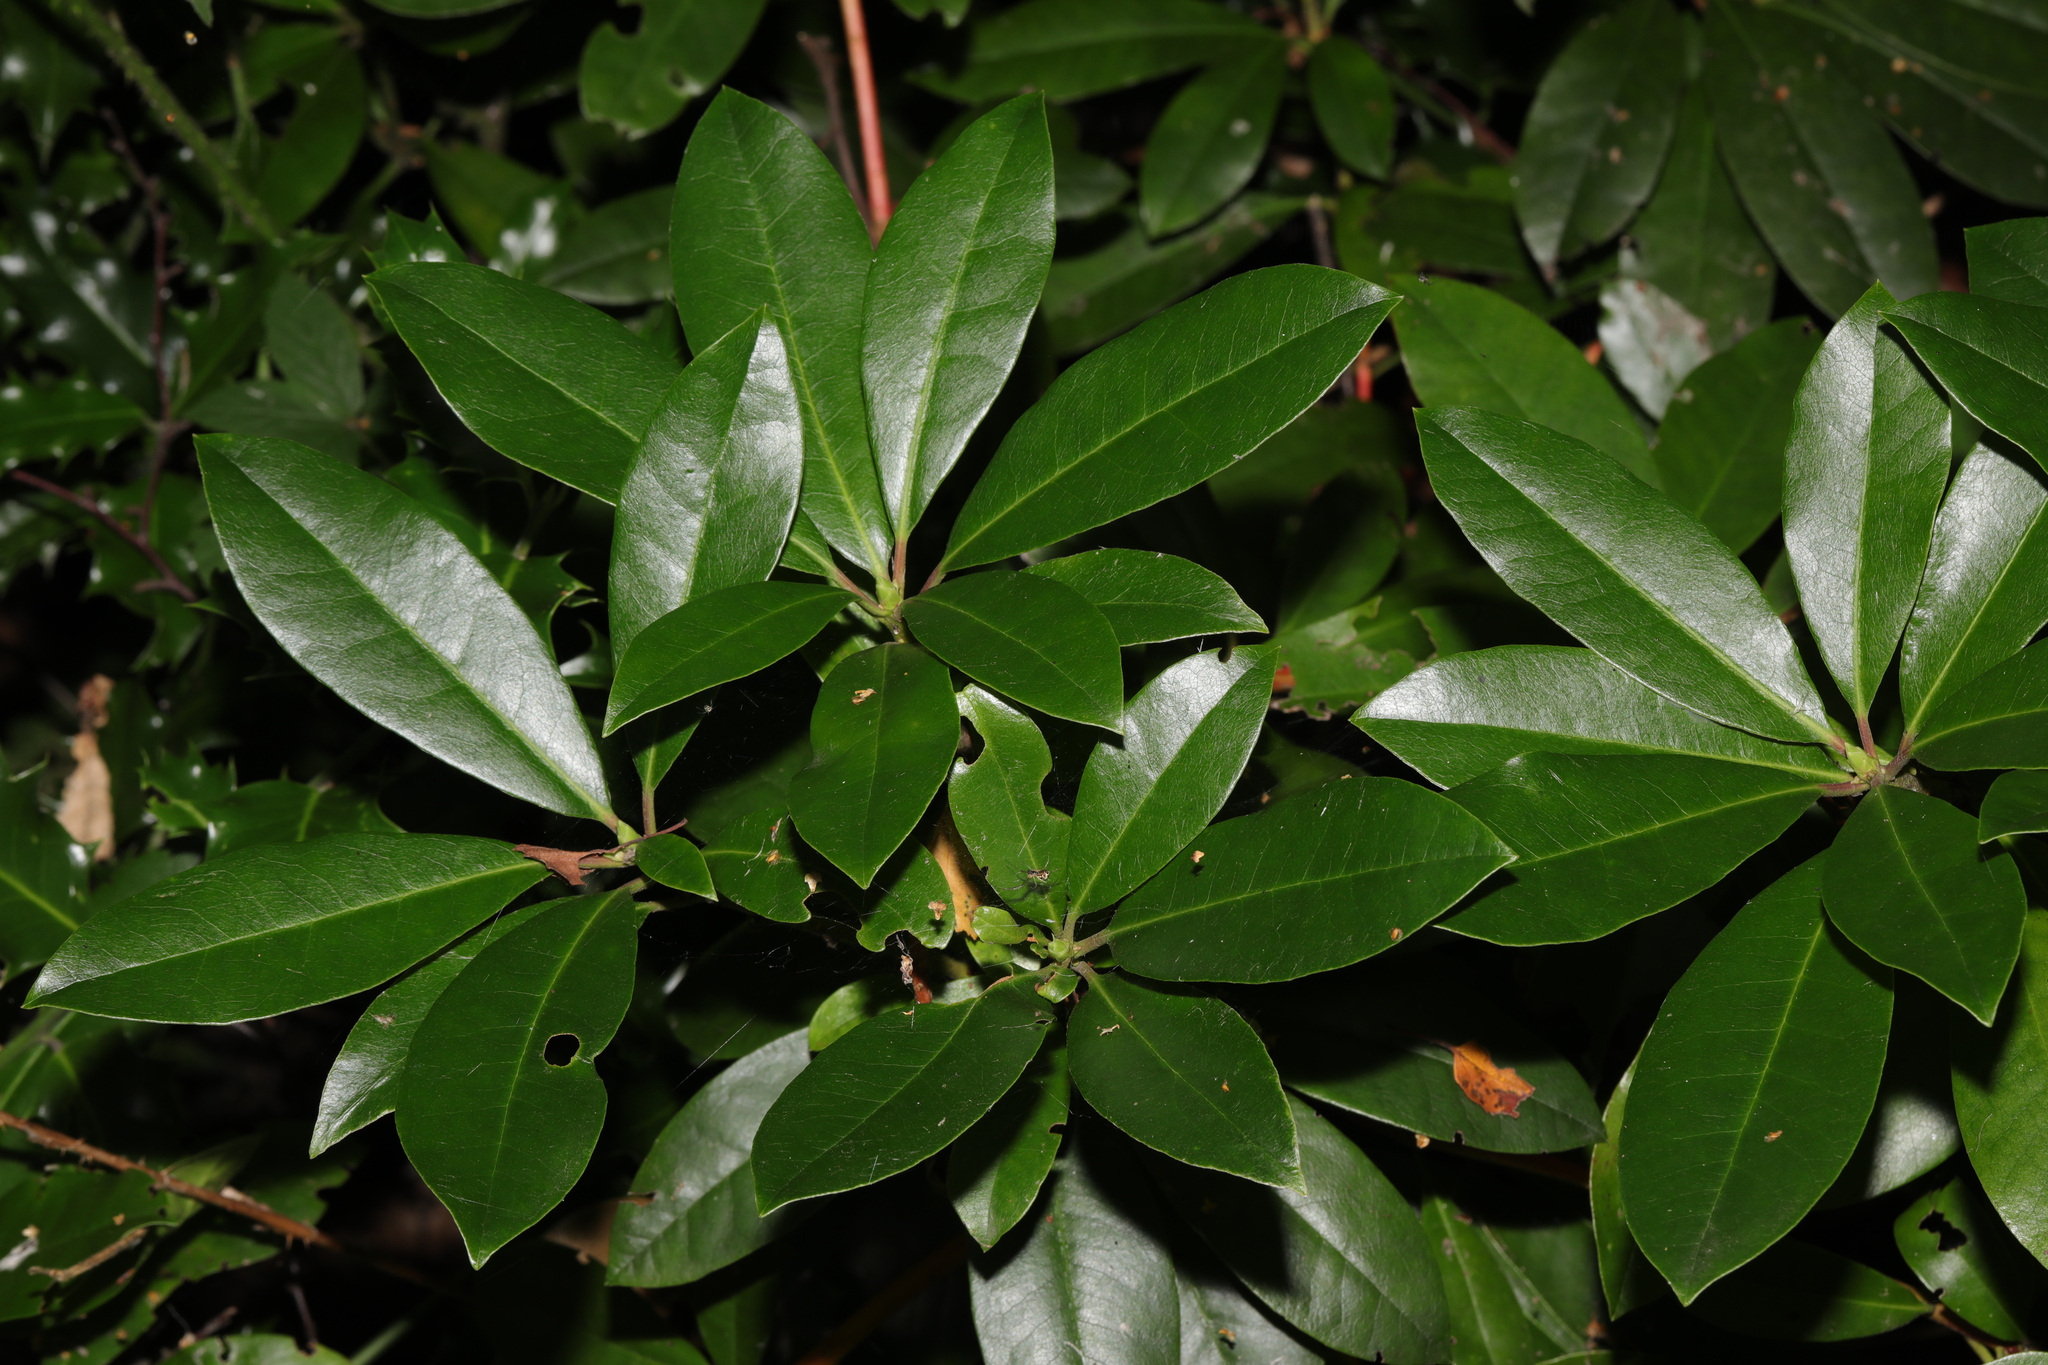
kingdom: Plantae
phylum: Tracheophyta
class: Magnoliopsida
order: Ericales
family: Ericaceae
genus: Rhododendron
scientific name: Rhododendron ponticum
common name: Rhododendron
